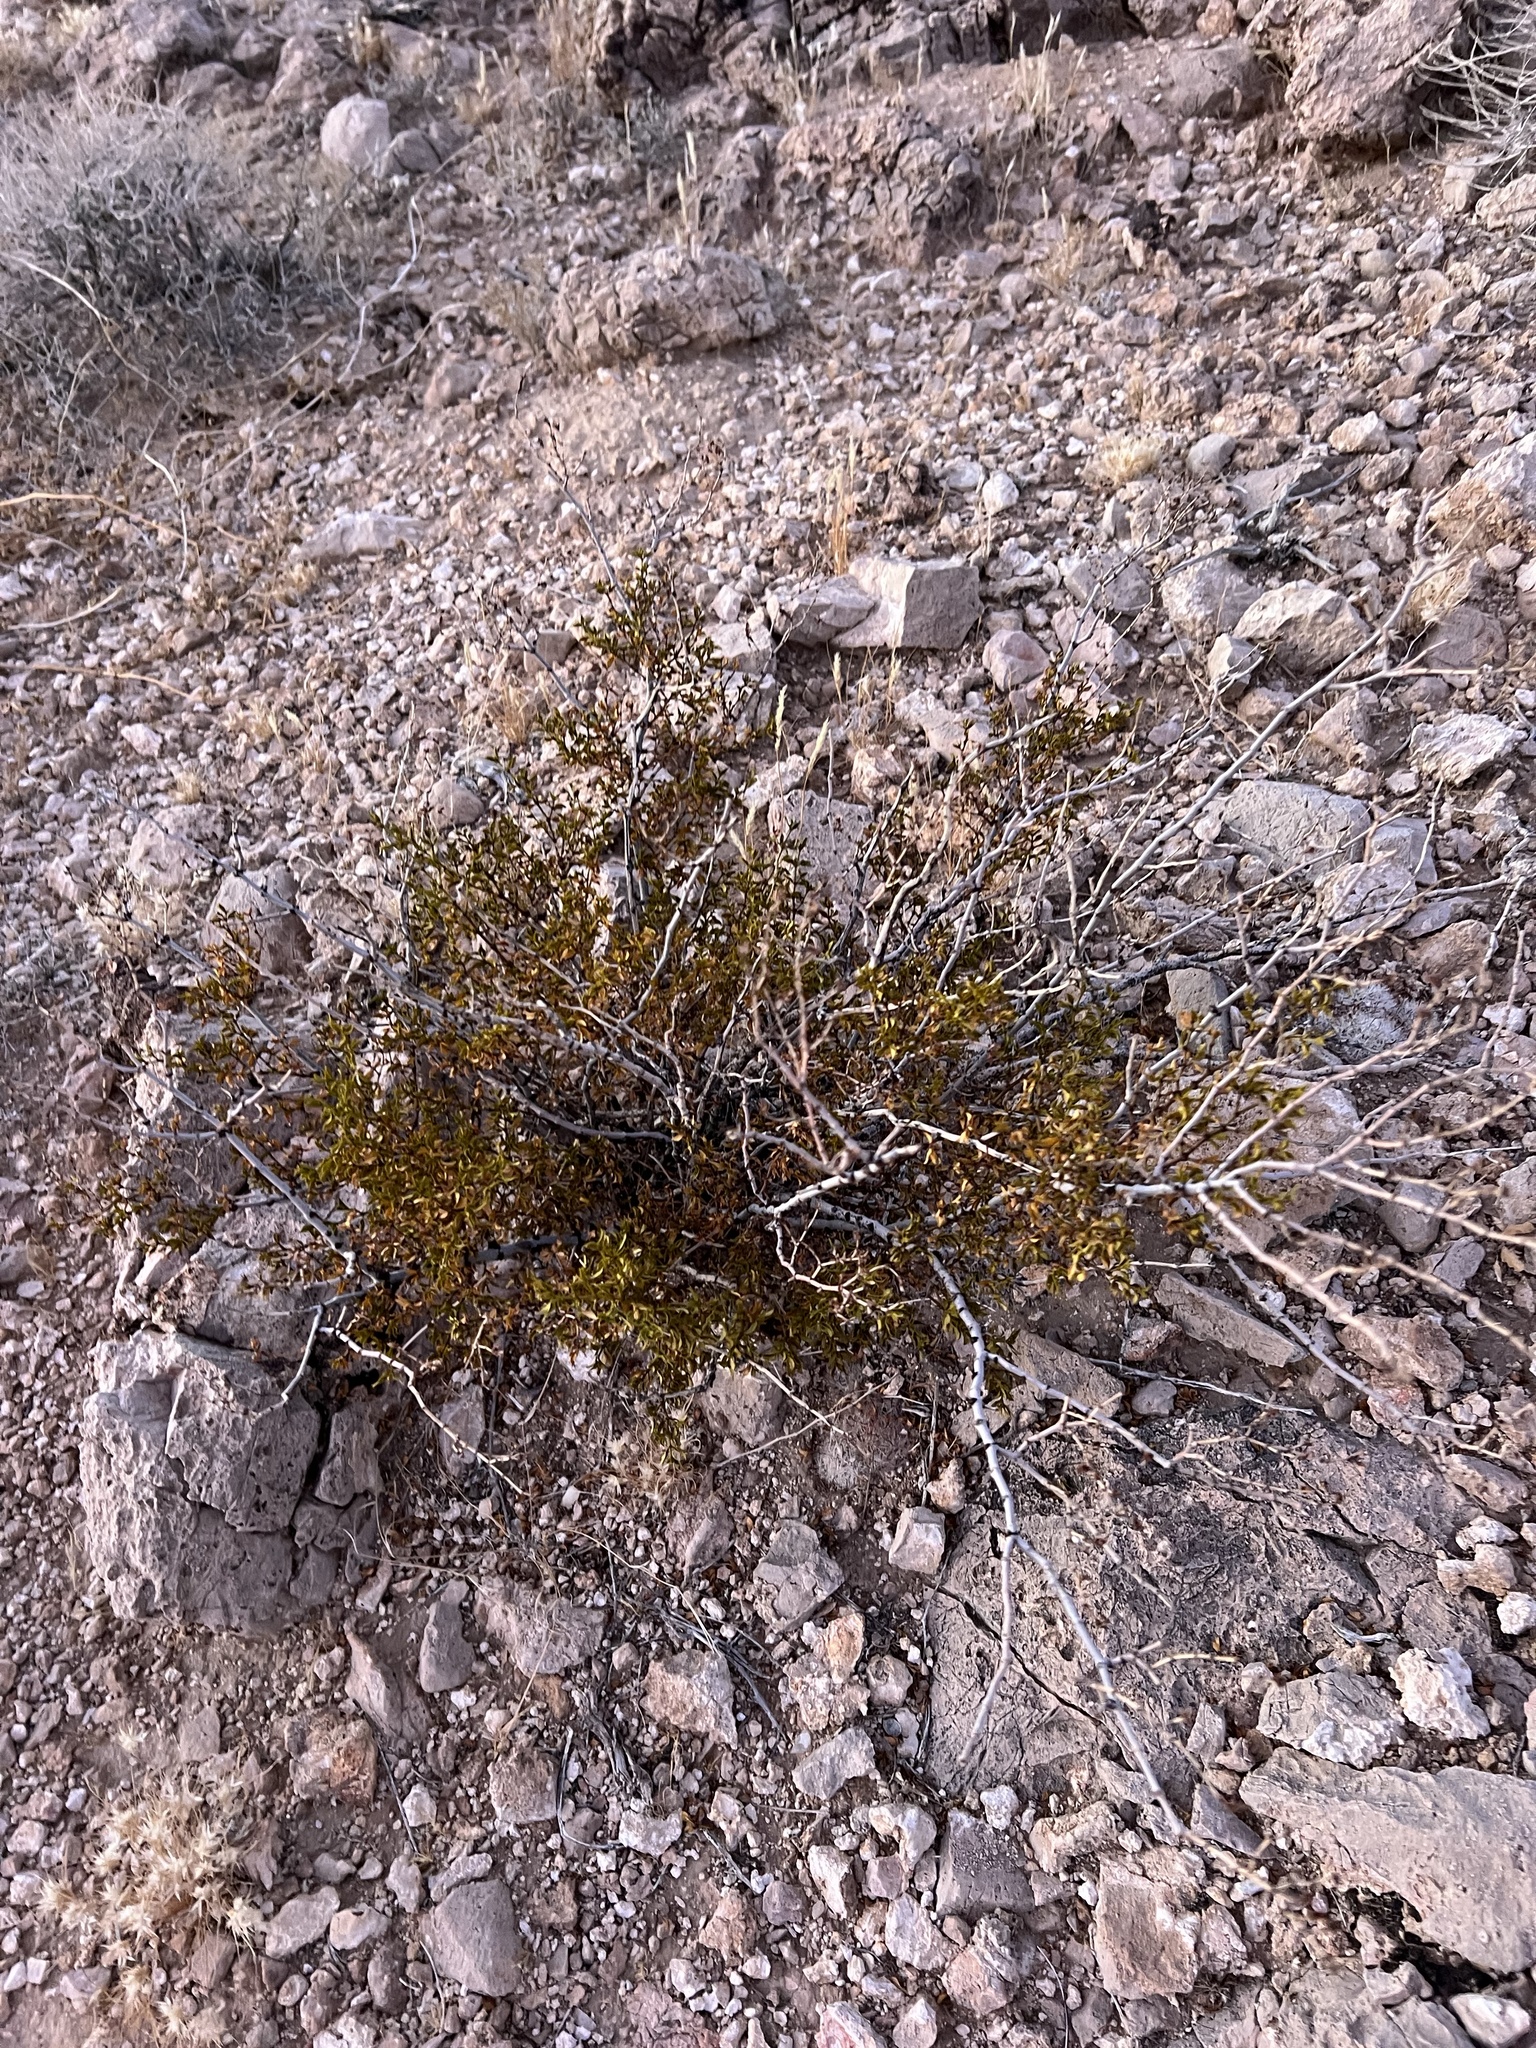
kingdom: Plantae
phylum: Tracheophyta
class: Magnoliopsida
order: Zygophyllales
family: Zygophyllaceae
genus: Larrea
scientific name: Larrea tridentata
